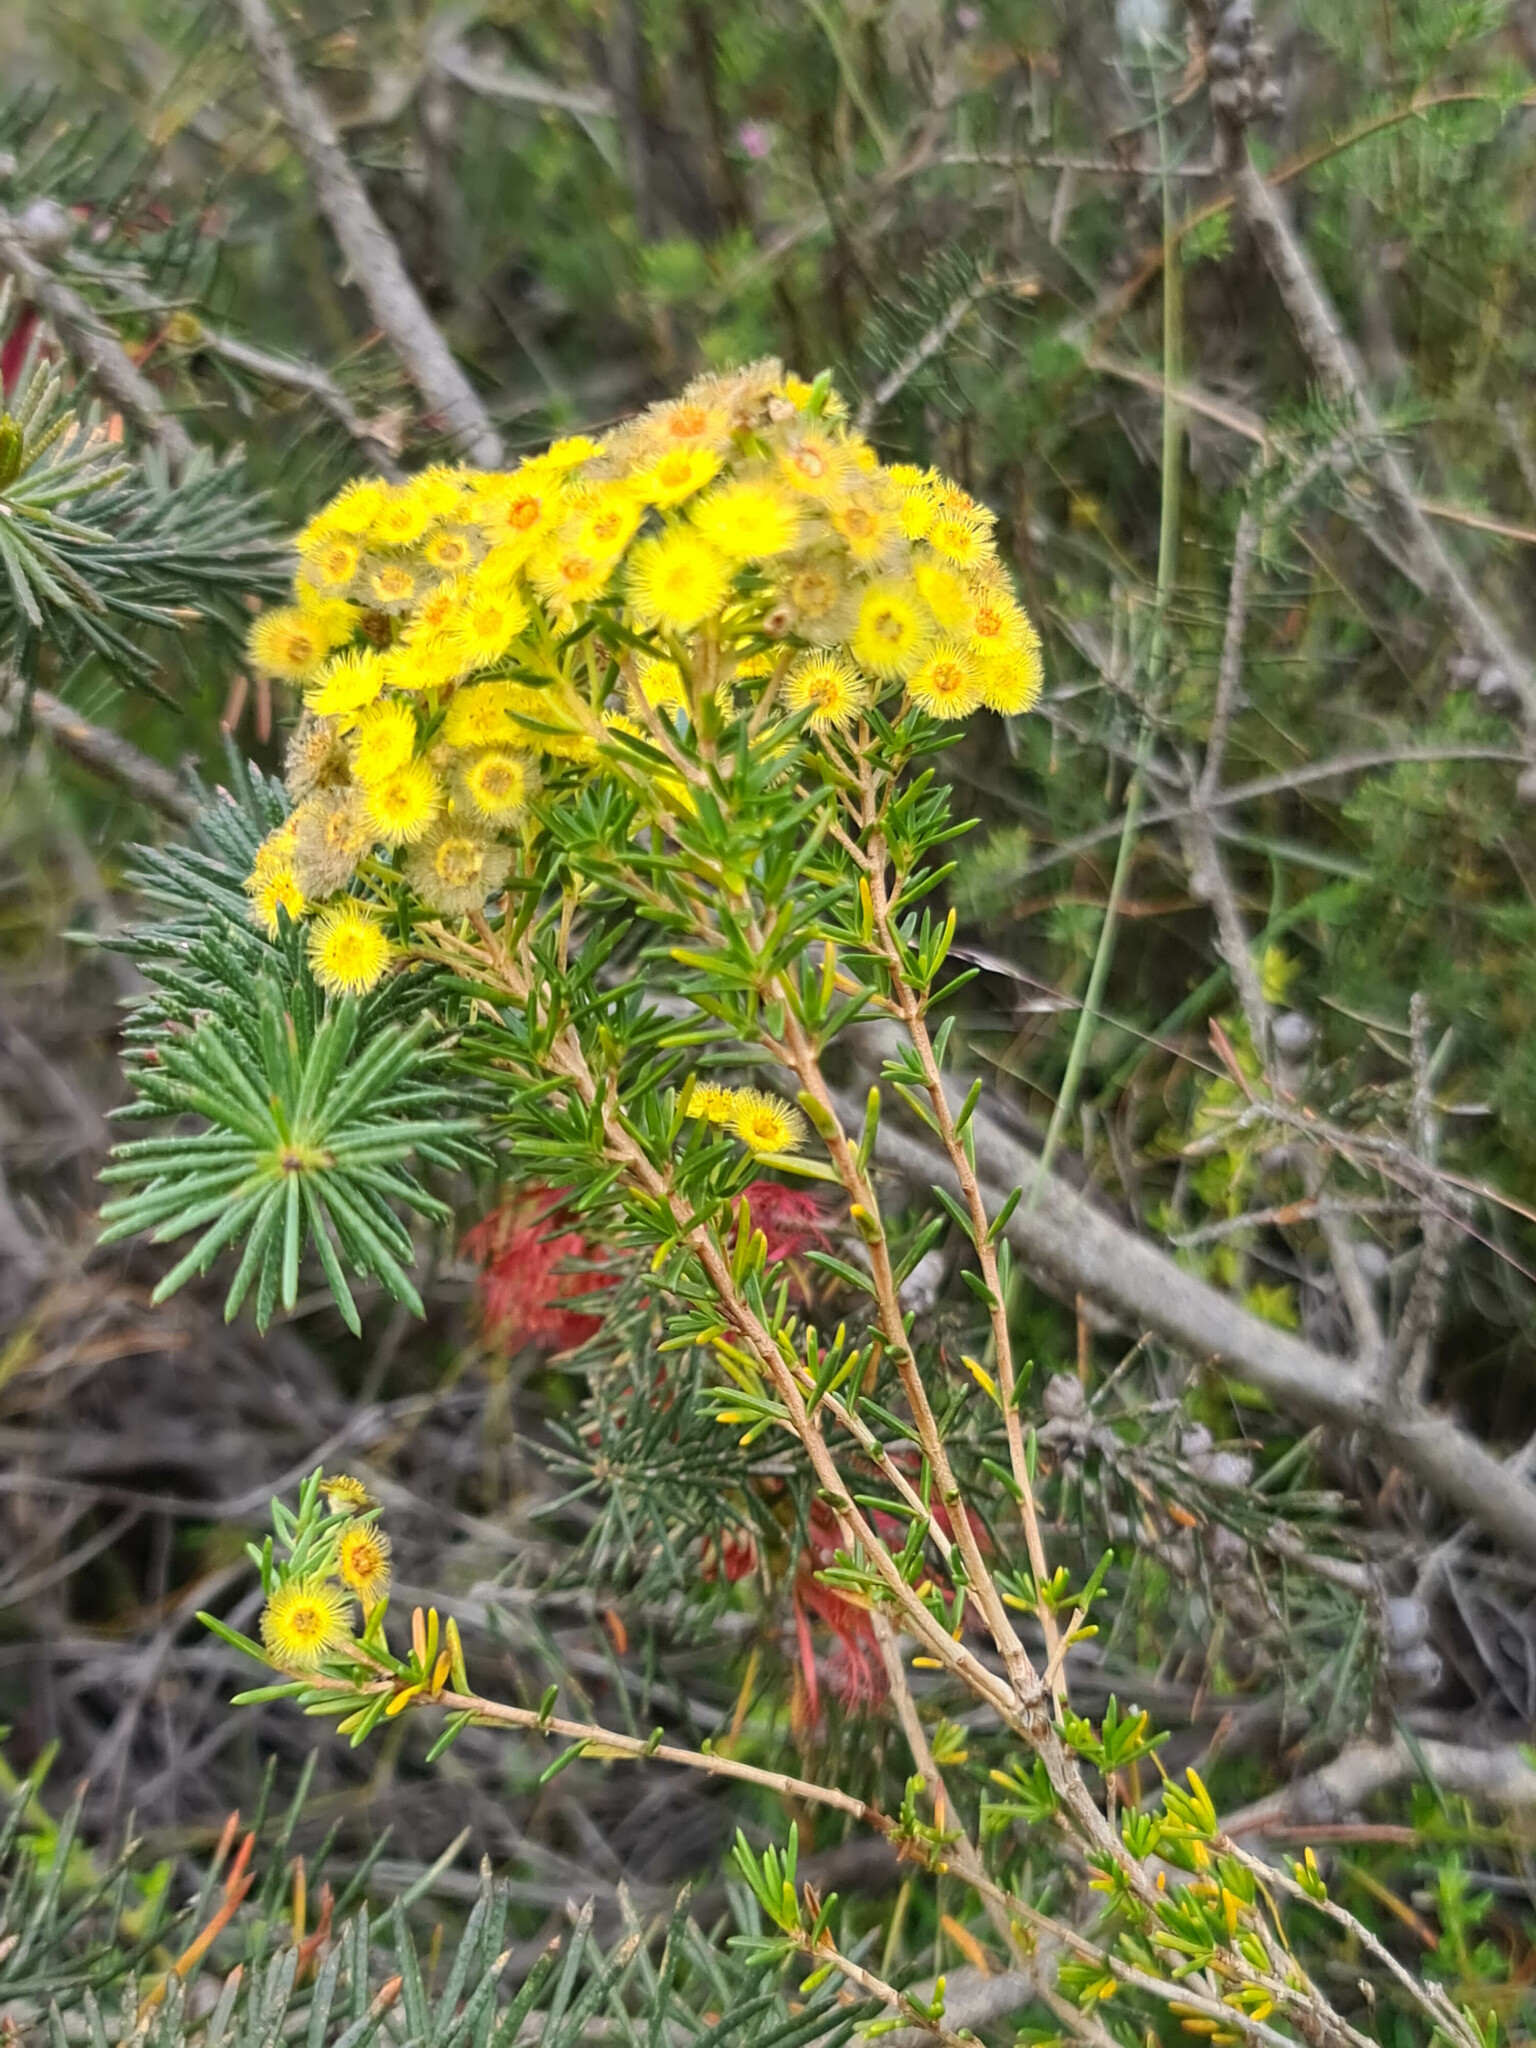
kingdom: Plantae
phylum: Tracheophyta
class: Magnoliopsida
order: Myrtales
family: Myrtaceae
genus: Verticordia
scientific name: Verticordia rutilastra
